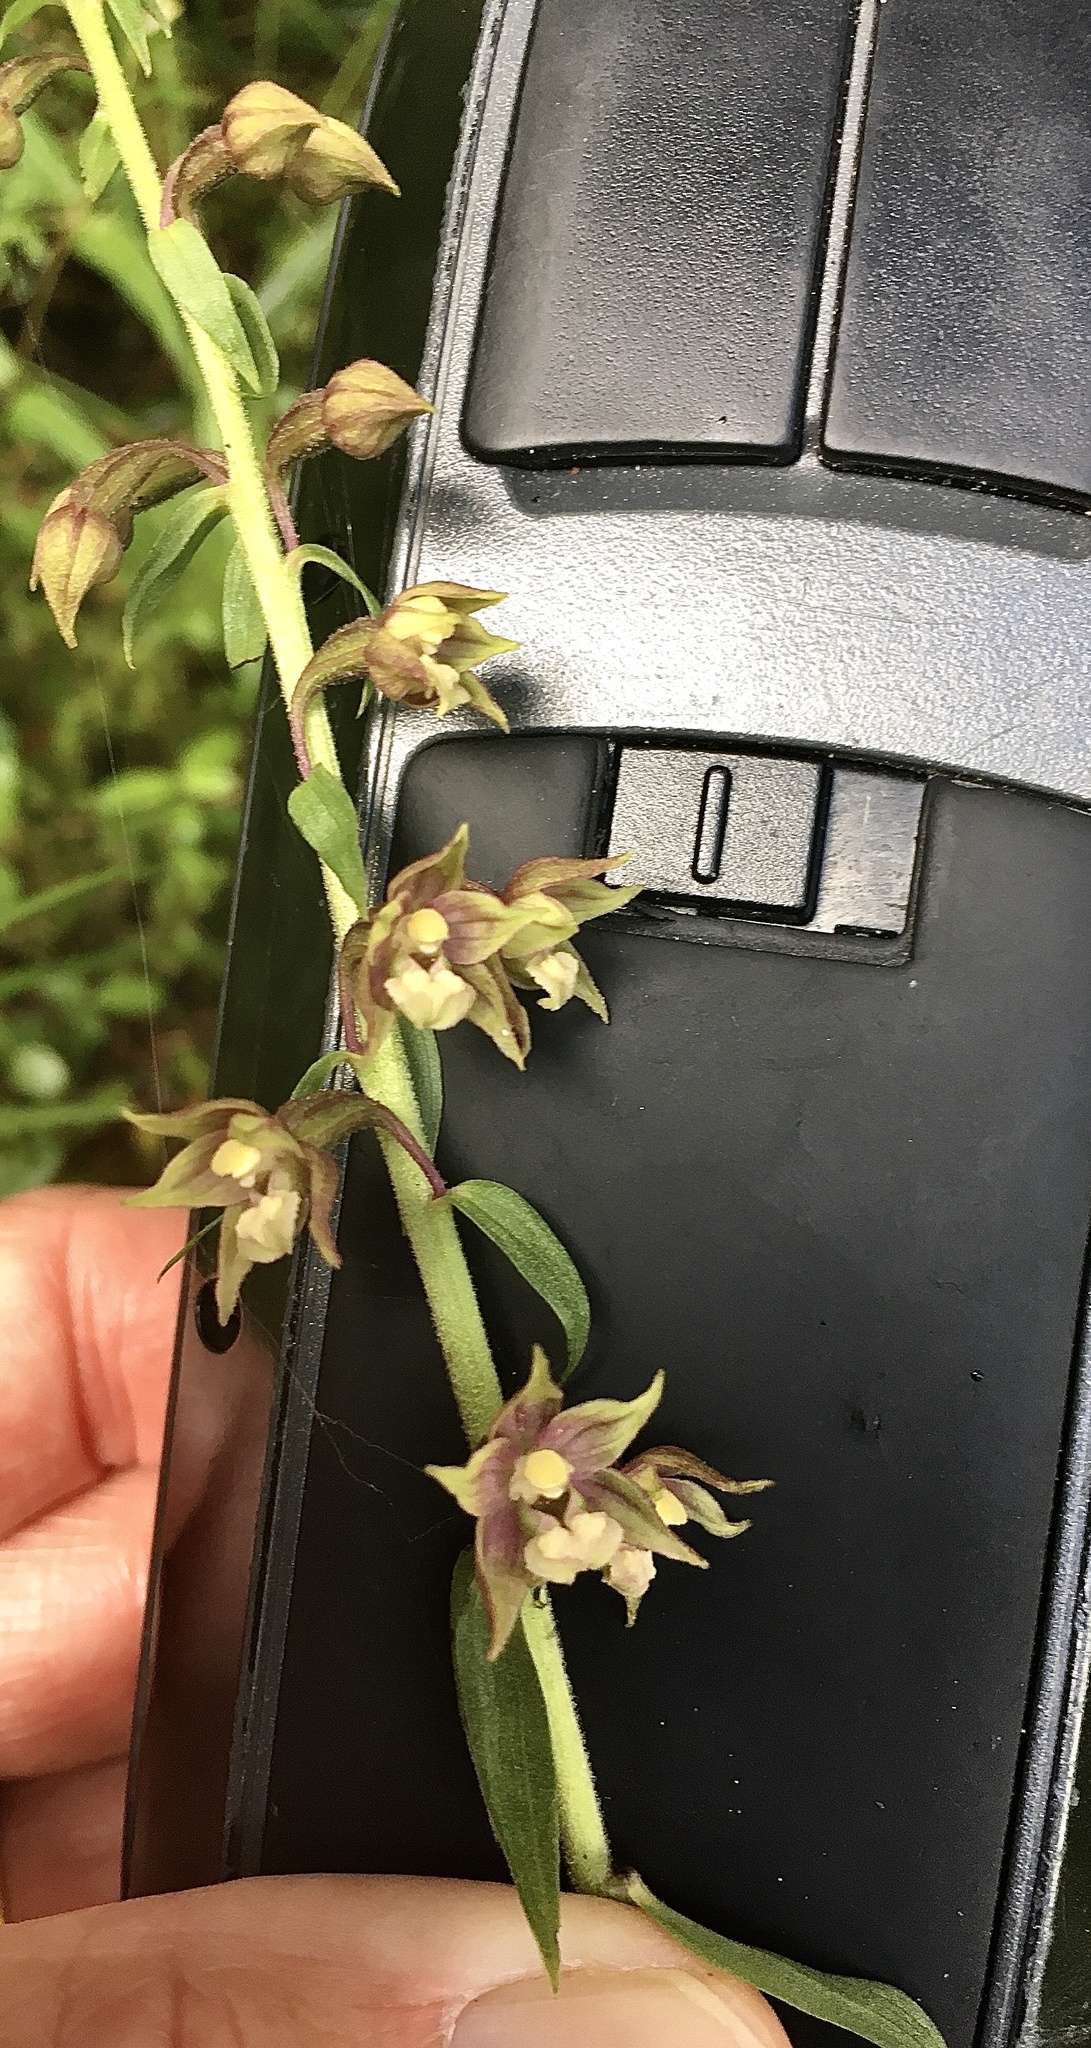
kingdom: Plantae
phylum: Tracheophyta
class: Liliopsida
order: Asparagales
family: Orchidaceae
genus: Epipactis
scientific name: Epipactis helleborine
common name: Broad-leaved helleborine
